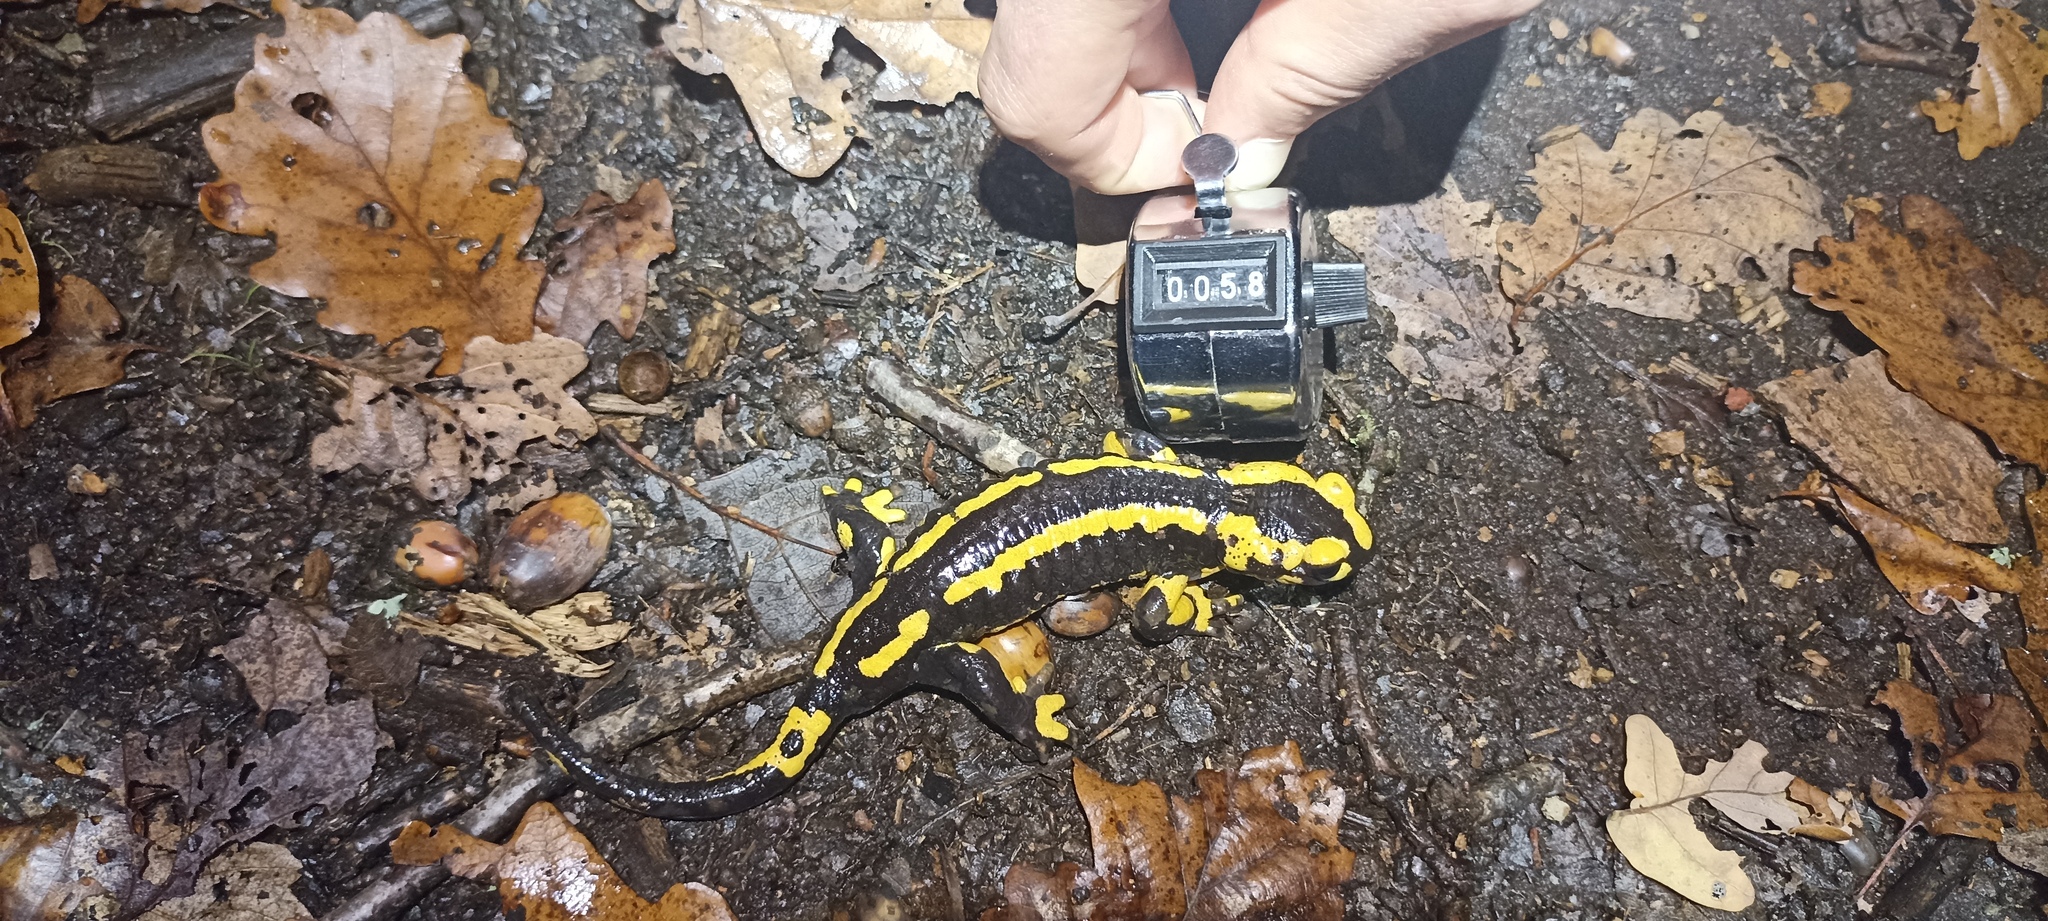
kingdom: Animalia
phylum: Chordata
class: Amphibia
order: Caudata
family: Salamandridae
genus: Salamandra
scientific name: Salamandra salamandra
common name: Fire salamander
